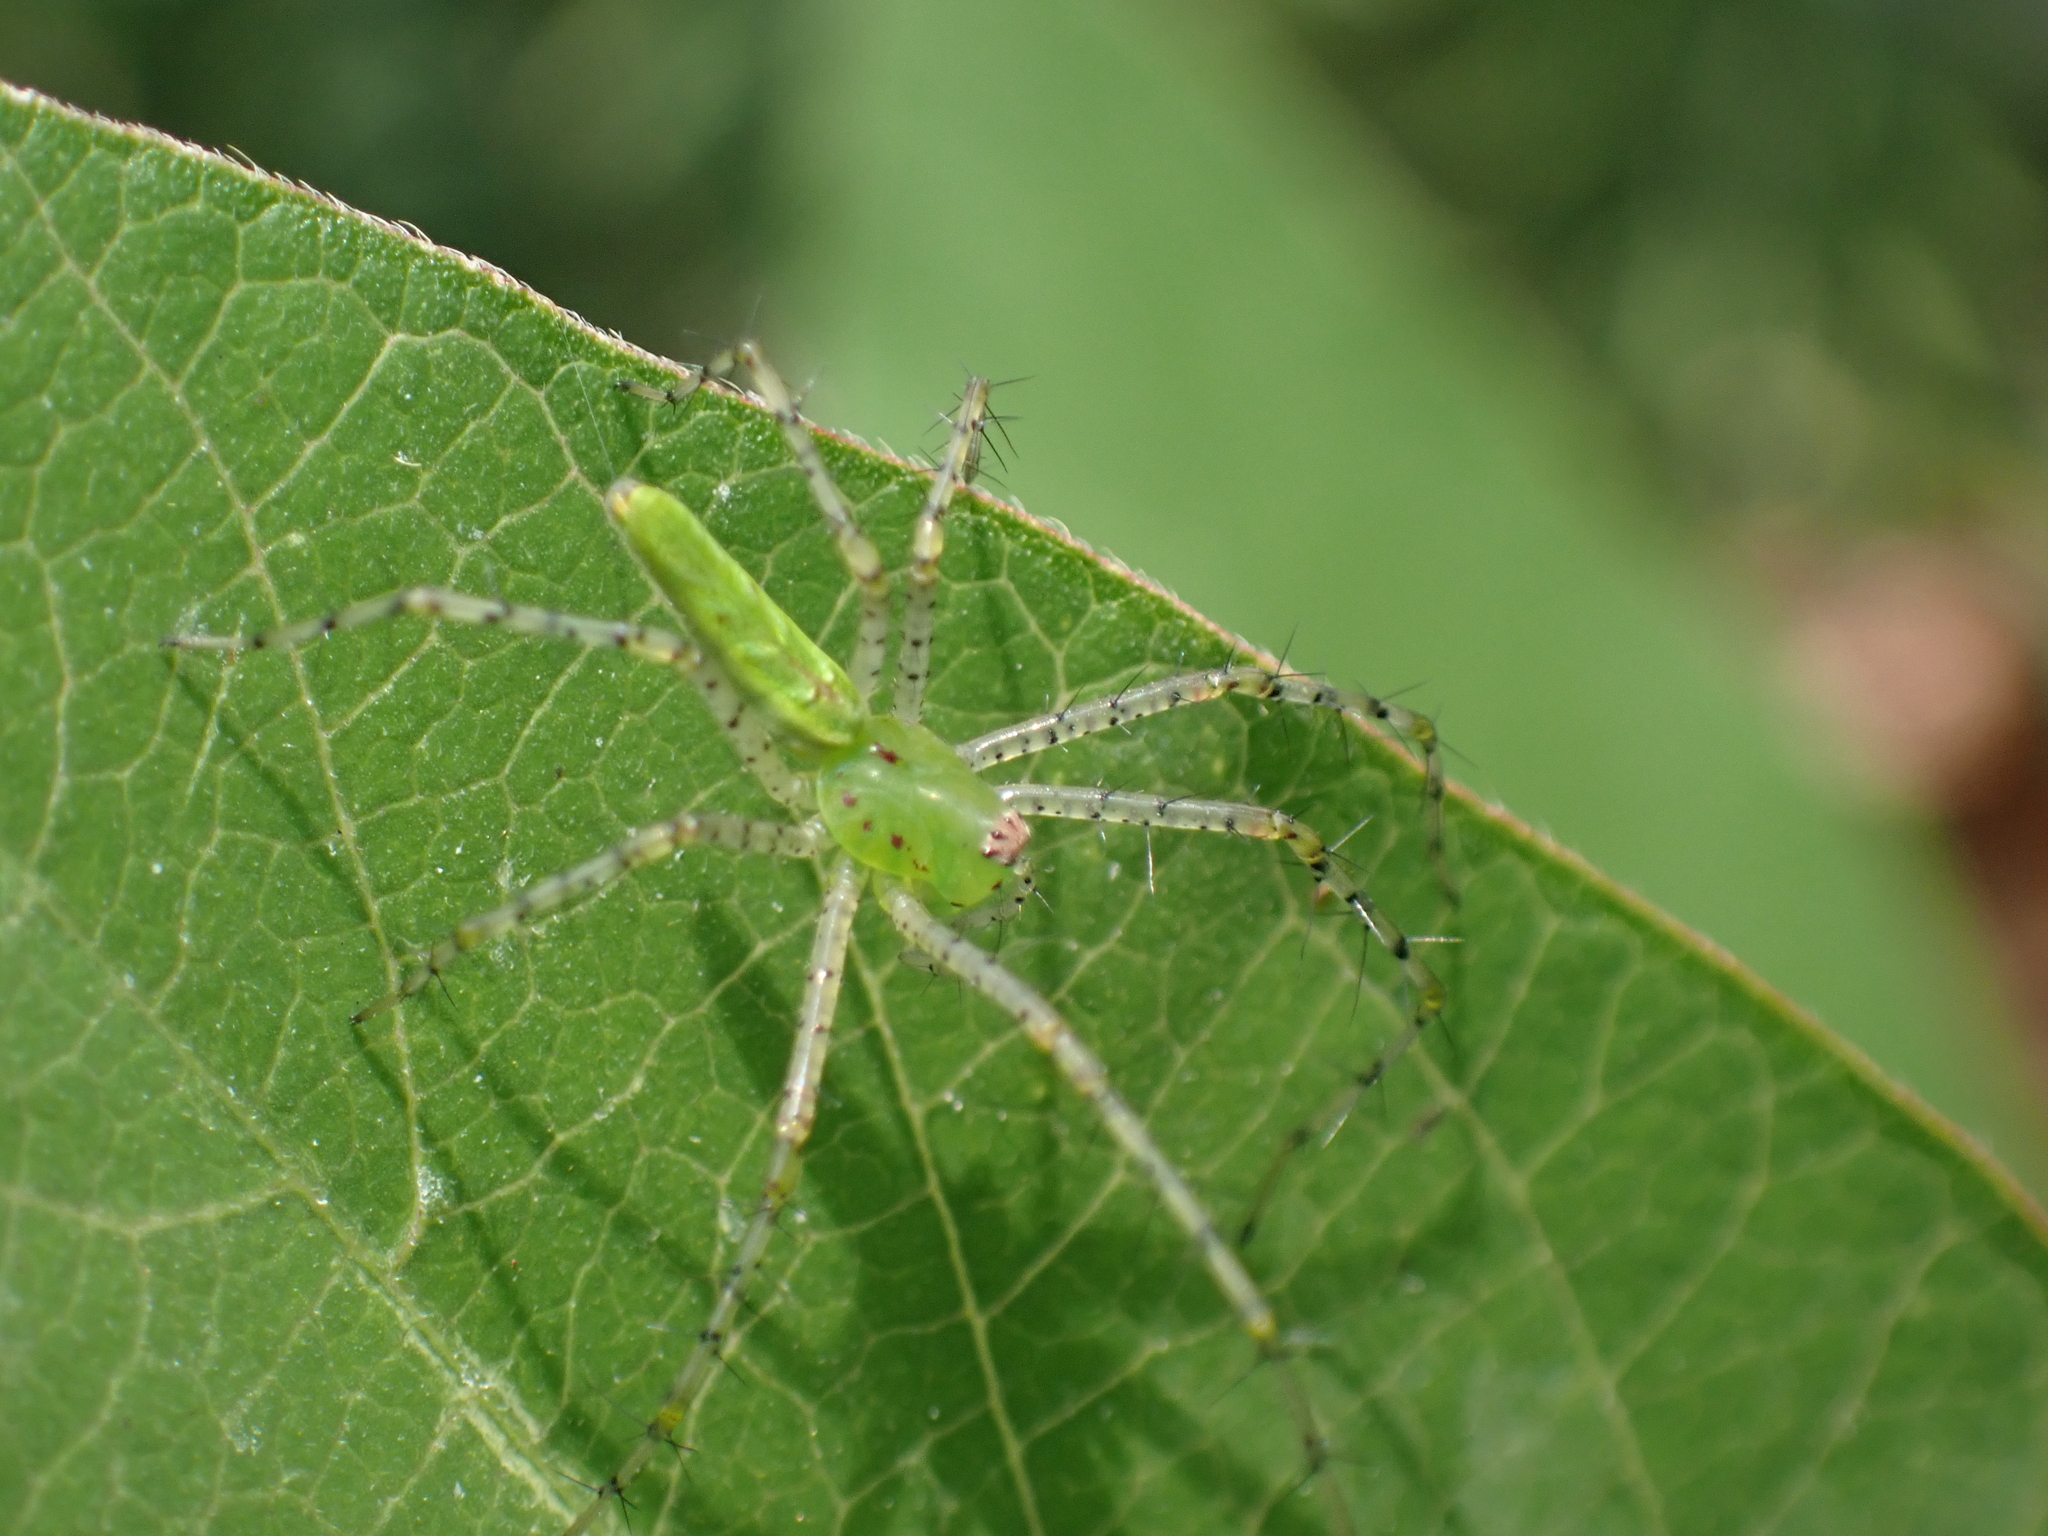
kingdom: Animalia
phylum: Arthropoda
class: Arachnida
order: Araneae
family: Oxyopidae
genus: Peucetia
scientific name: Peucetia viridans
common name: Lynx spiders
